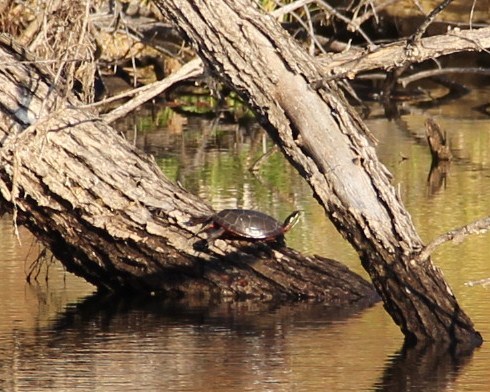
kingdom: Animalia
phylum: Chordata
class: Testudines
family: Emydidae
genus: Chrysemys
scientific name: Chrysemys picta
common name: Painted turtle
